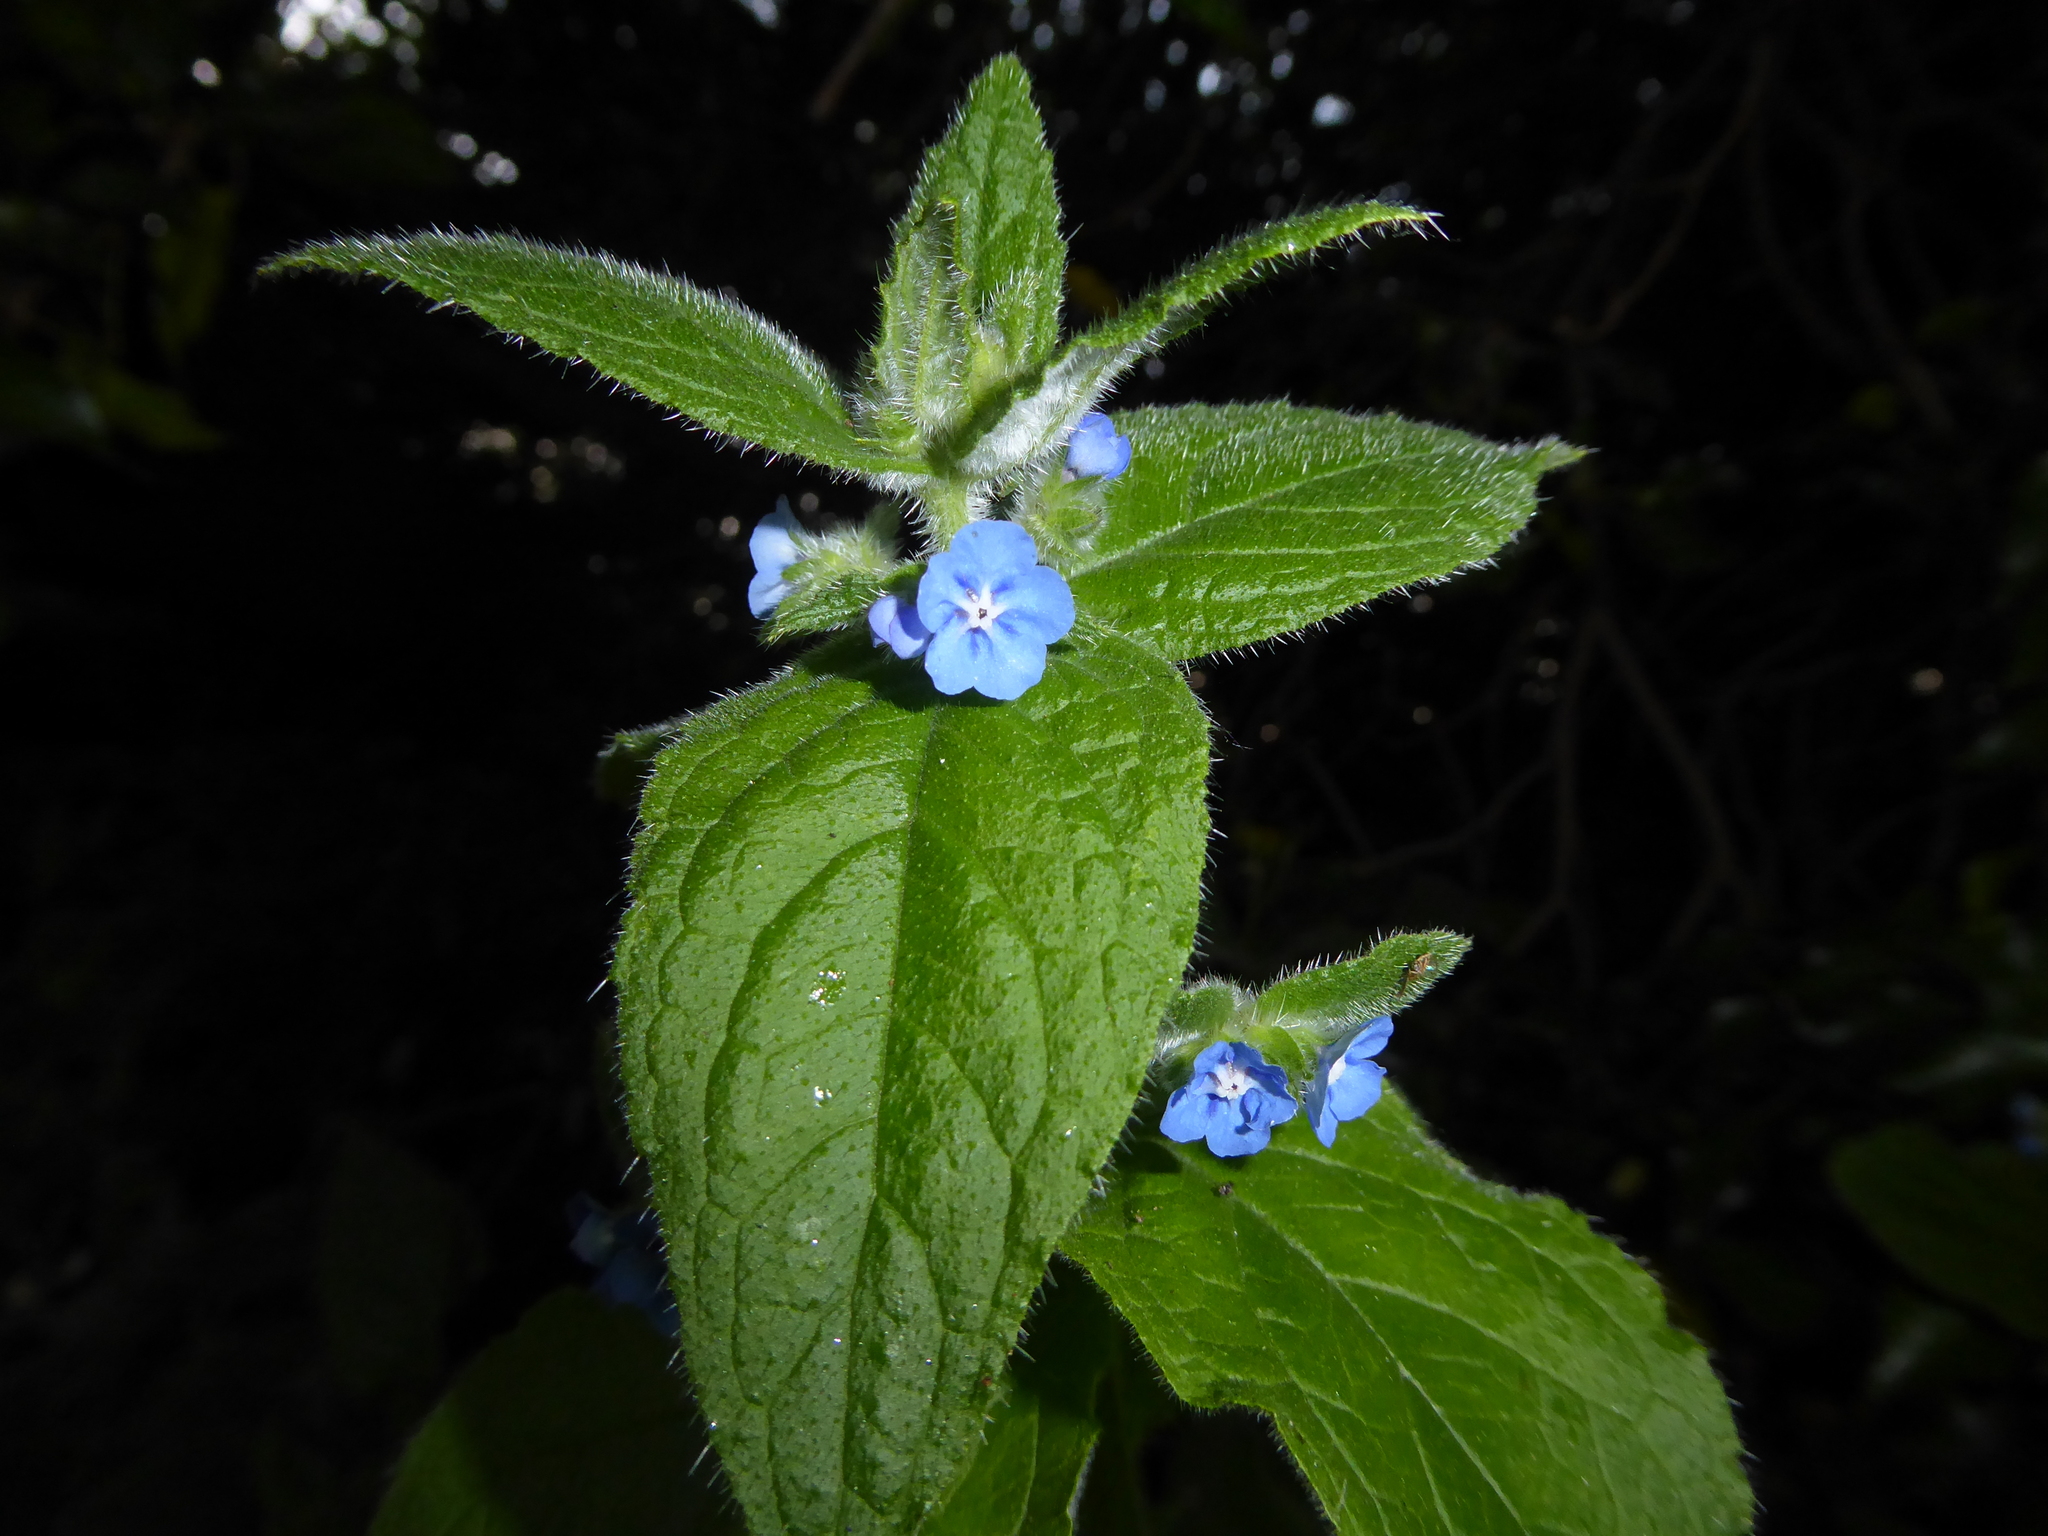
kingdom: Plantae
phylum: Tracheophyta
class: Magnoliopsida
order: Boraginales
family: Boraginaceae
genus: Pentaglottis
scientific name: Pentaglottis sempervirens
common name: Green alkanet
